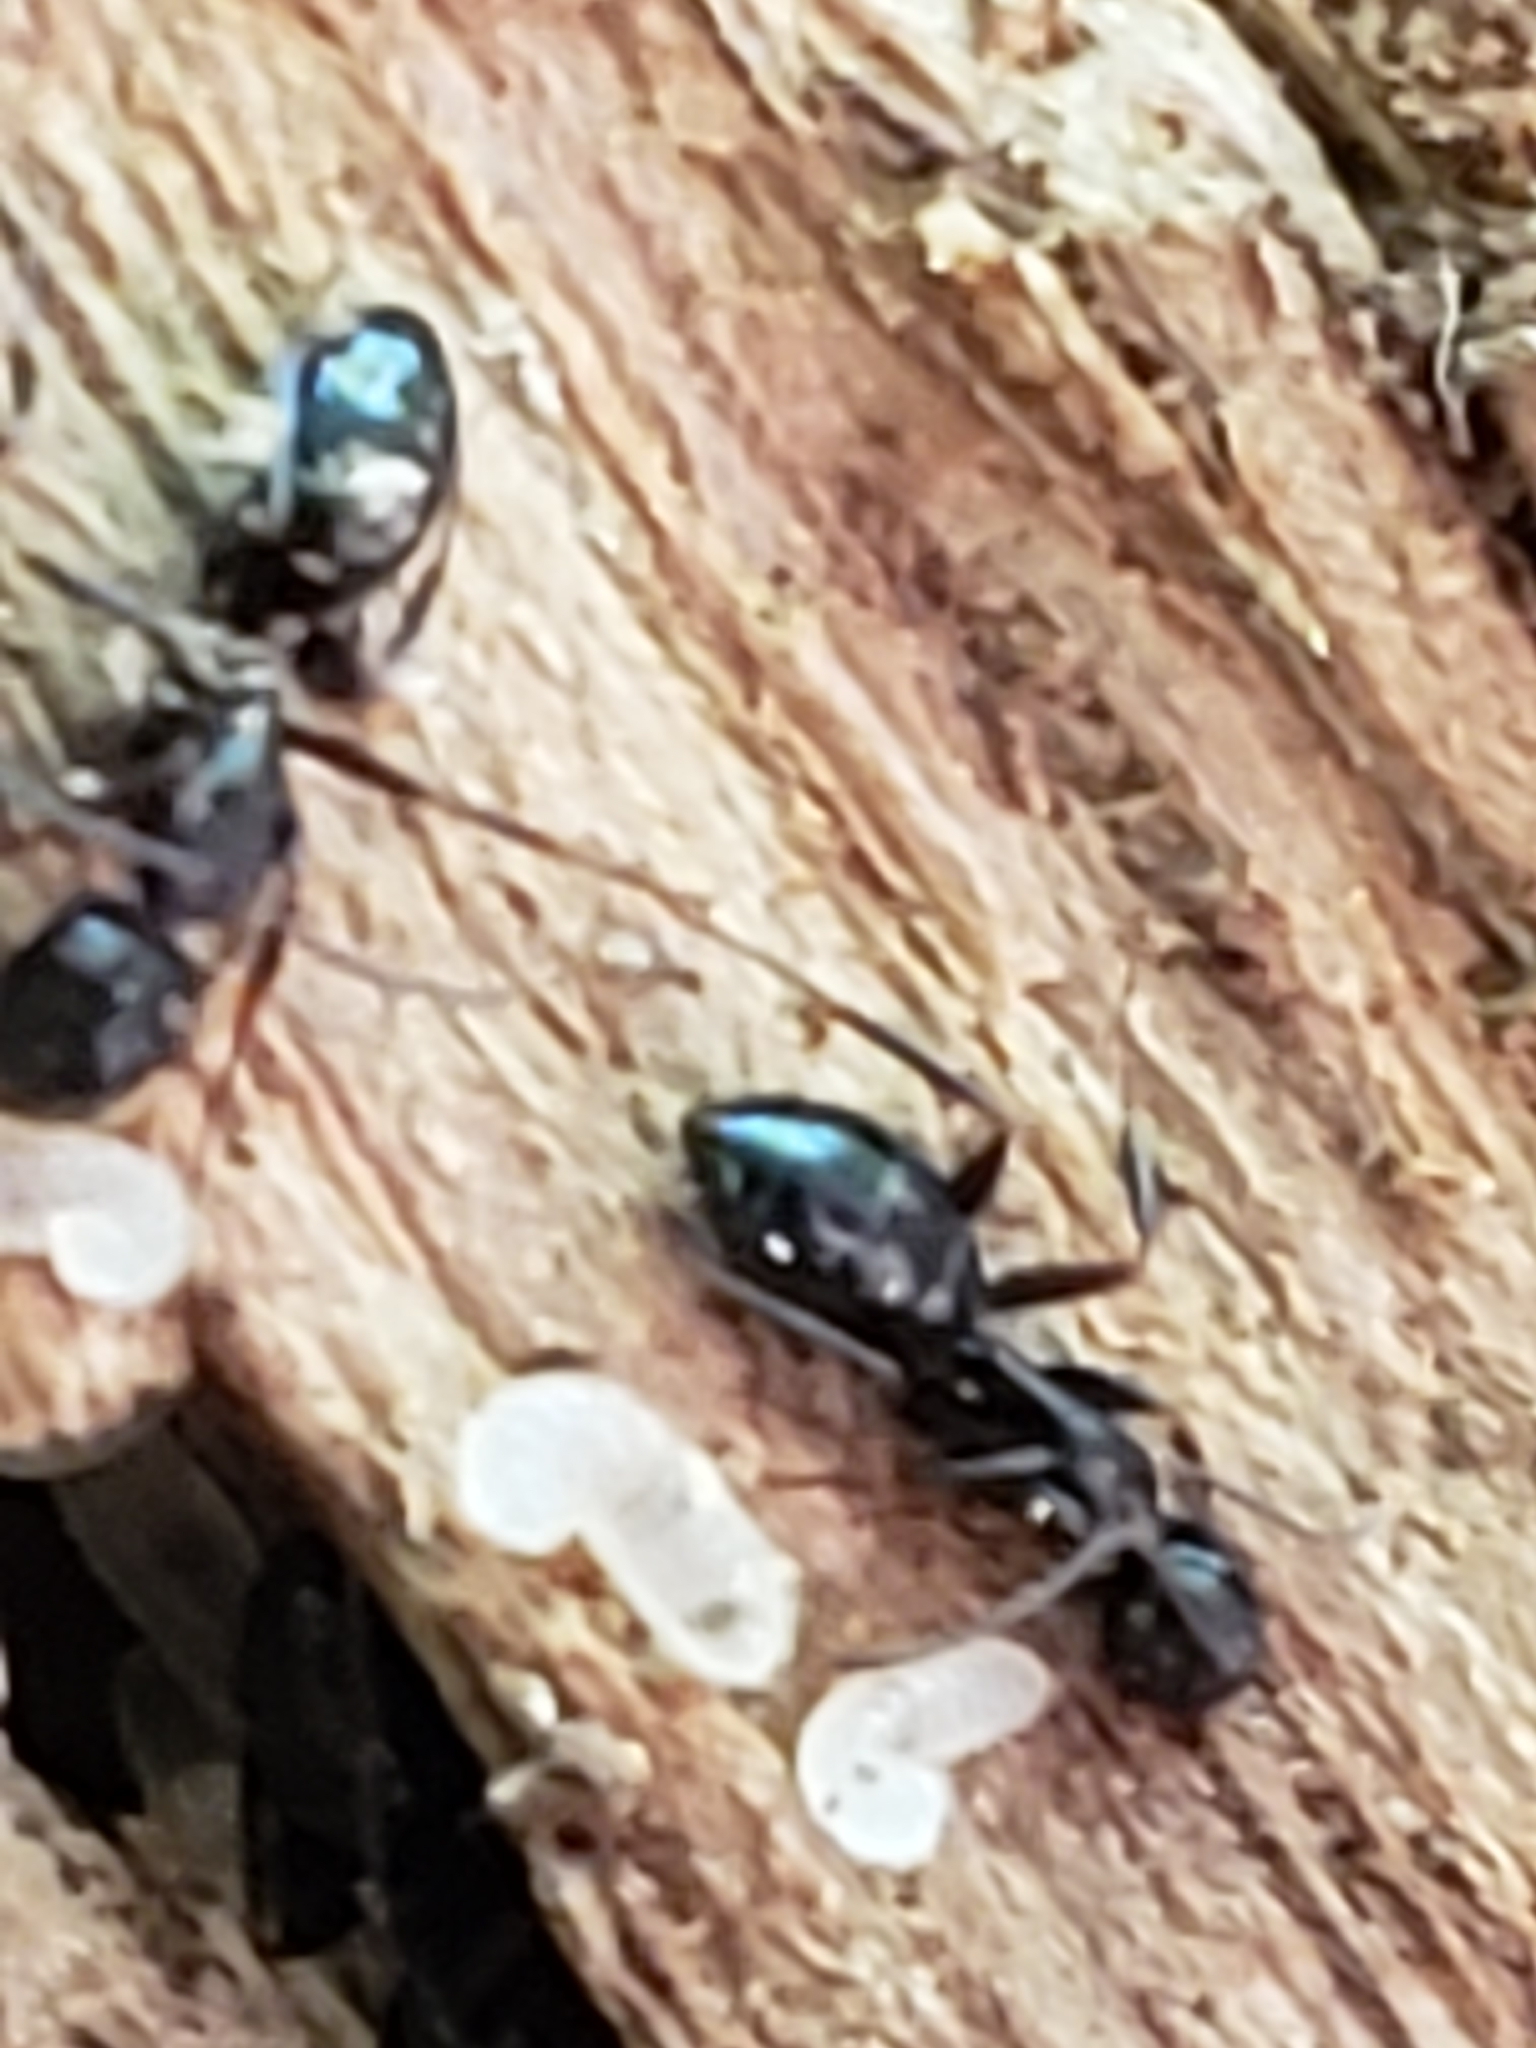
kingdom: Animalia
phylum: Arthropoda
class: Insecta
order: Hymenoptera
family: Formicidae
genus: Camponotus
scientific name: Camponotus nearcticus
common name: Smaller carpenter ant
